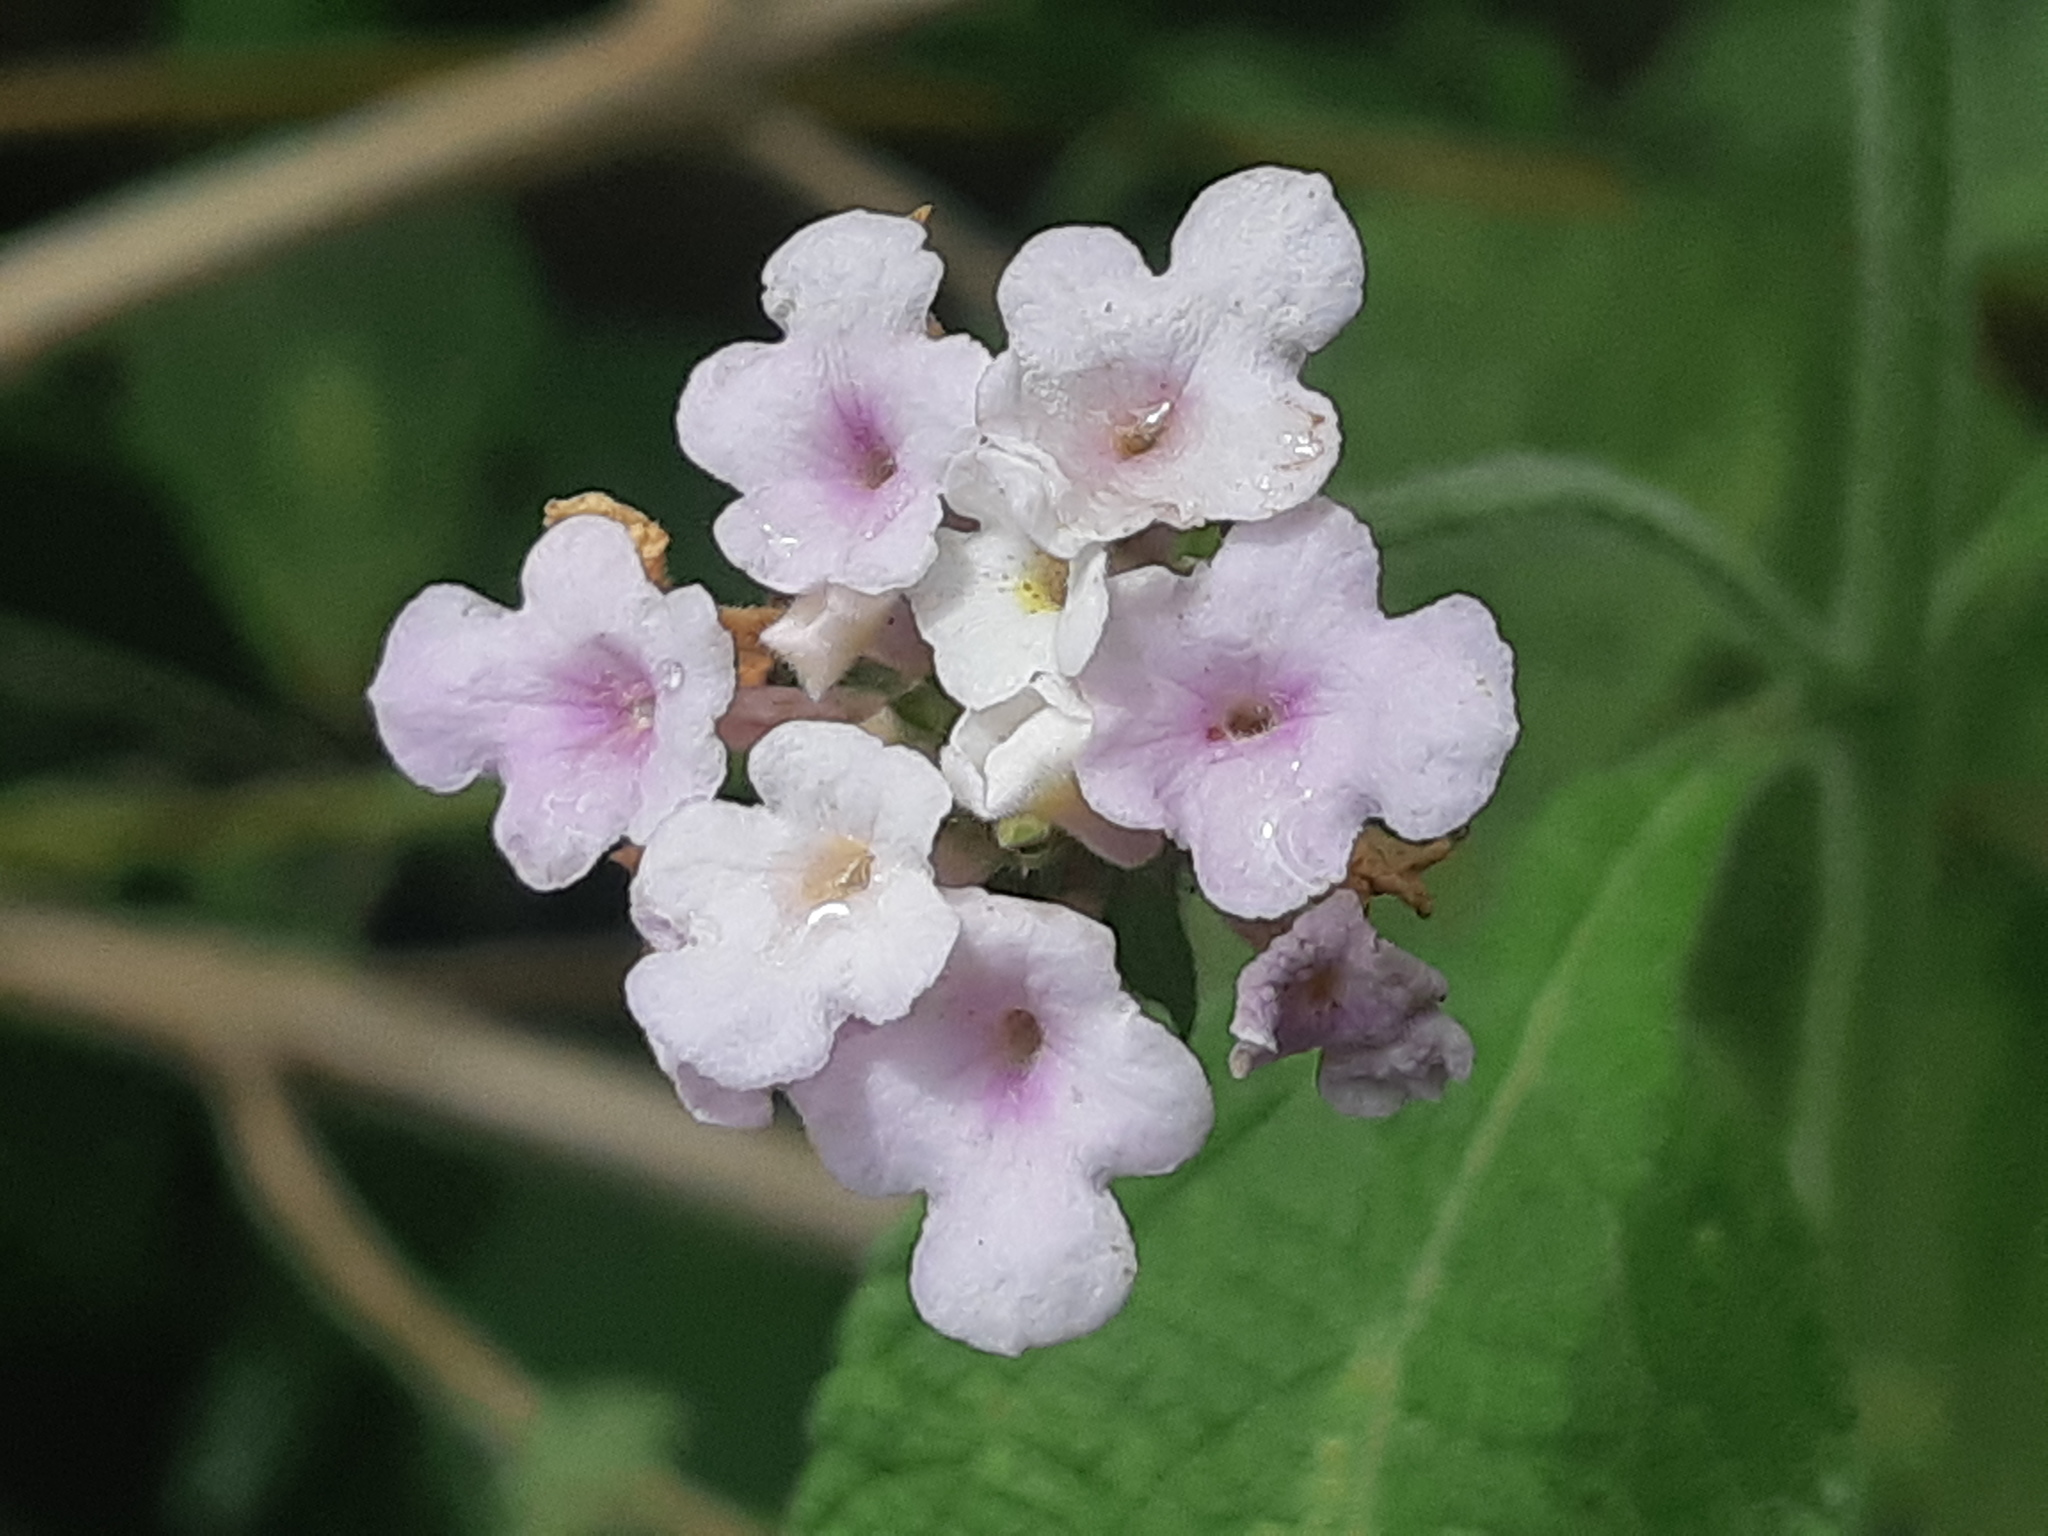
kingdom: Plantae
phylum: Tracheophyta
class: Magnoliopsida
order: Lamiales
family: Verbenaceae
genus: Lantana
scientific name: Lantana rugulosa
